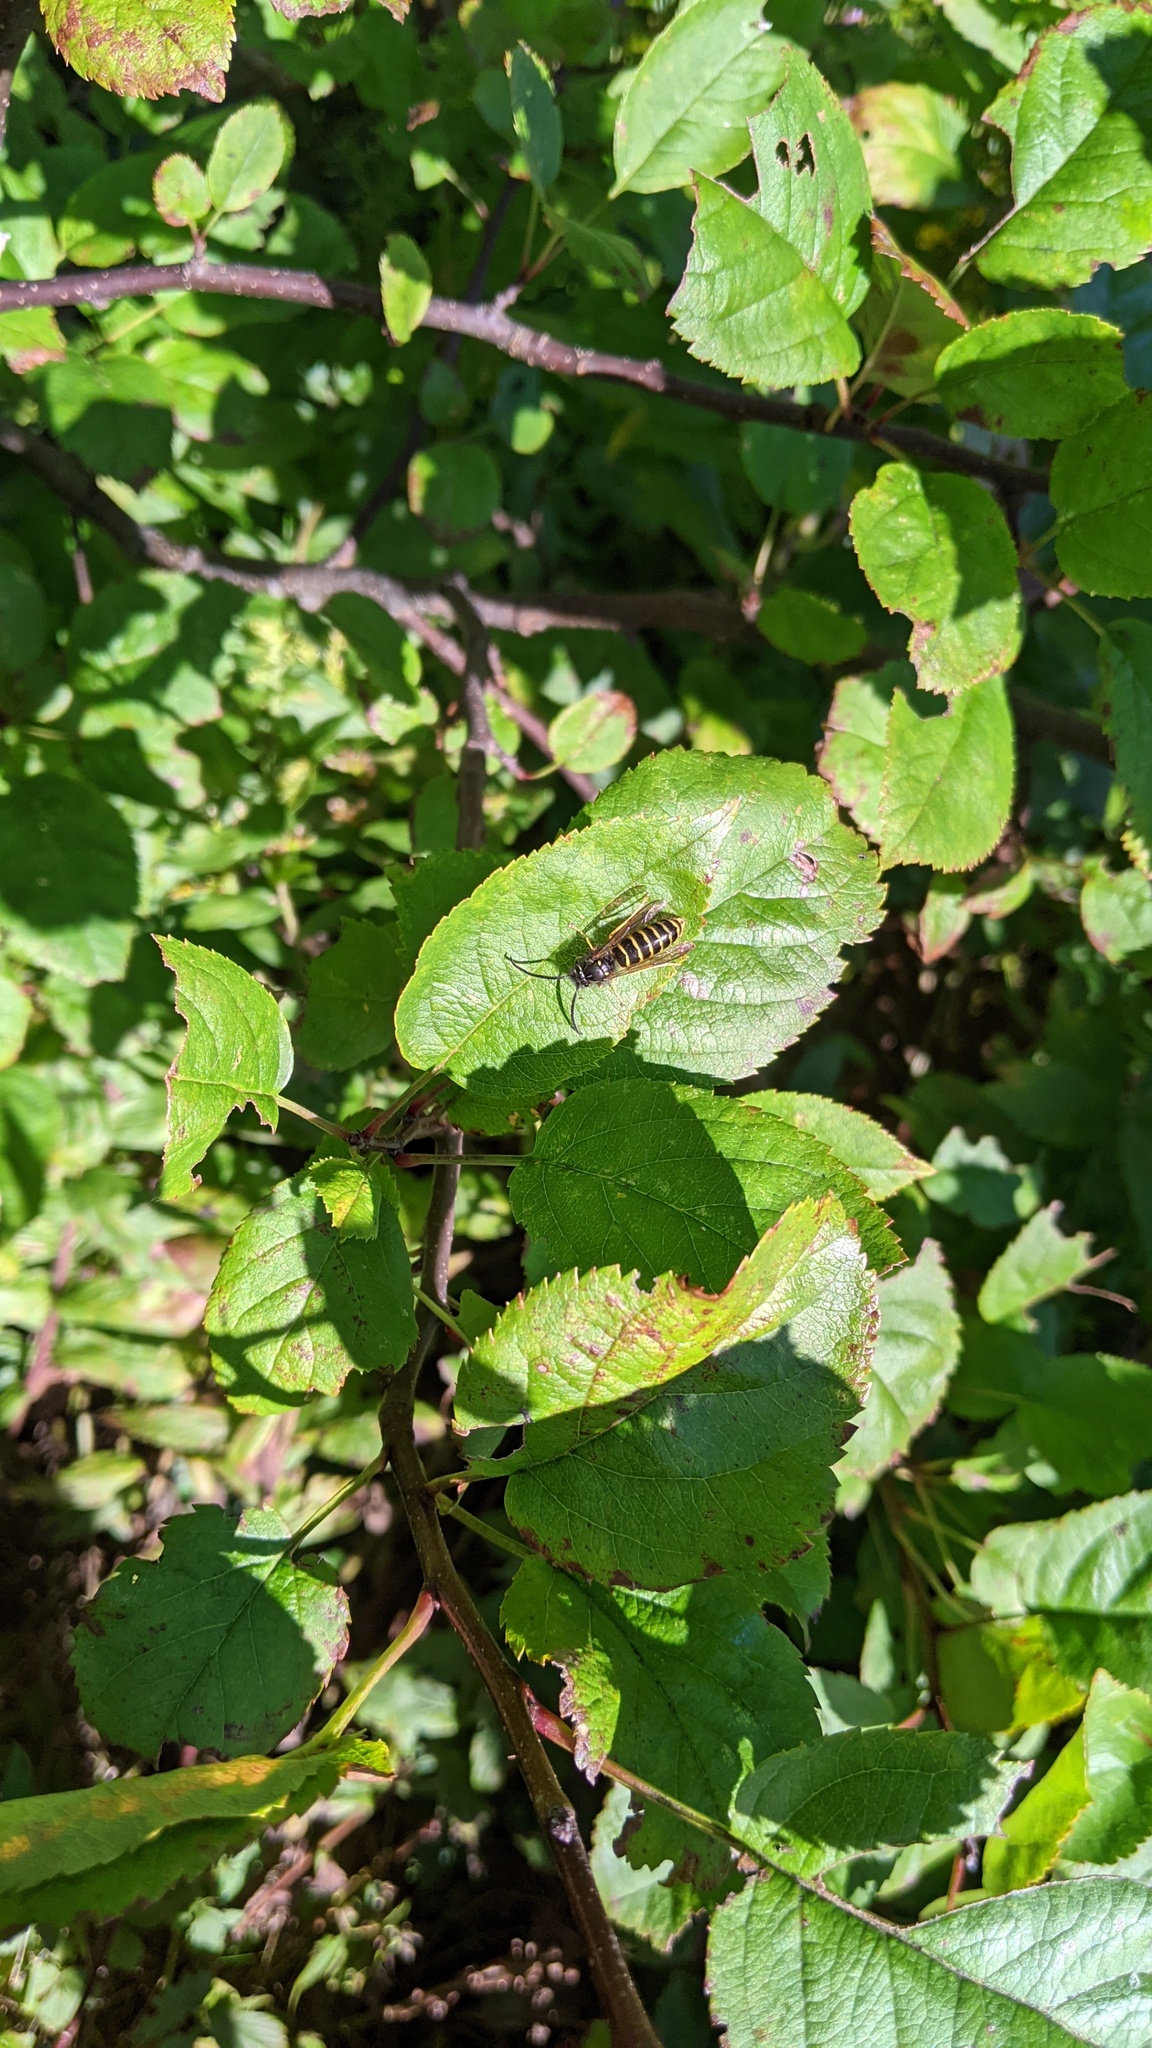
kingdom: Animalia
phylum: Arthropoda
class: Insecta
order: Hymenoptera
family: Vespidae
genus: Vespula
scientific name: Vespula alascensis
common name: Alaska yellowjacket
